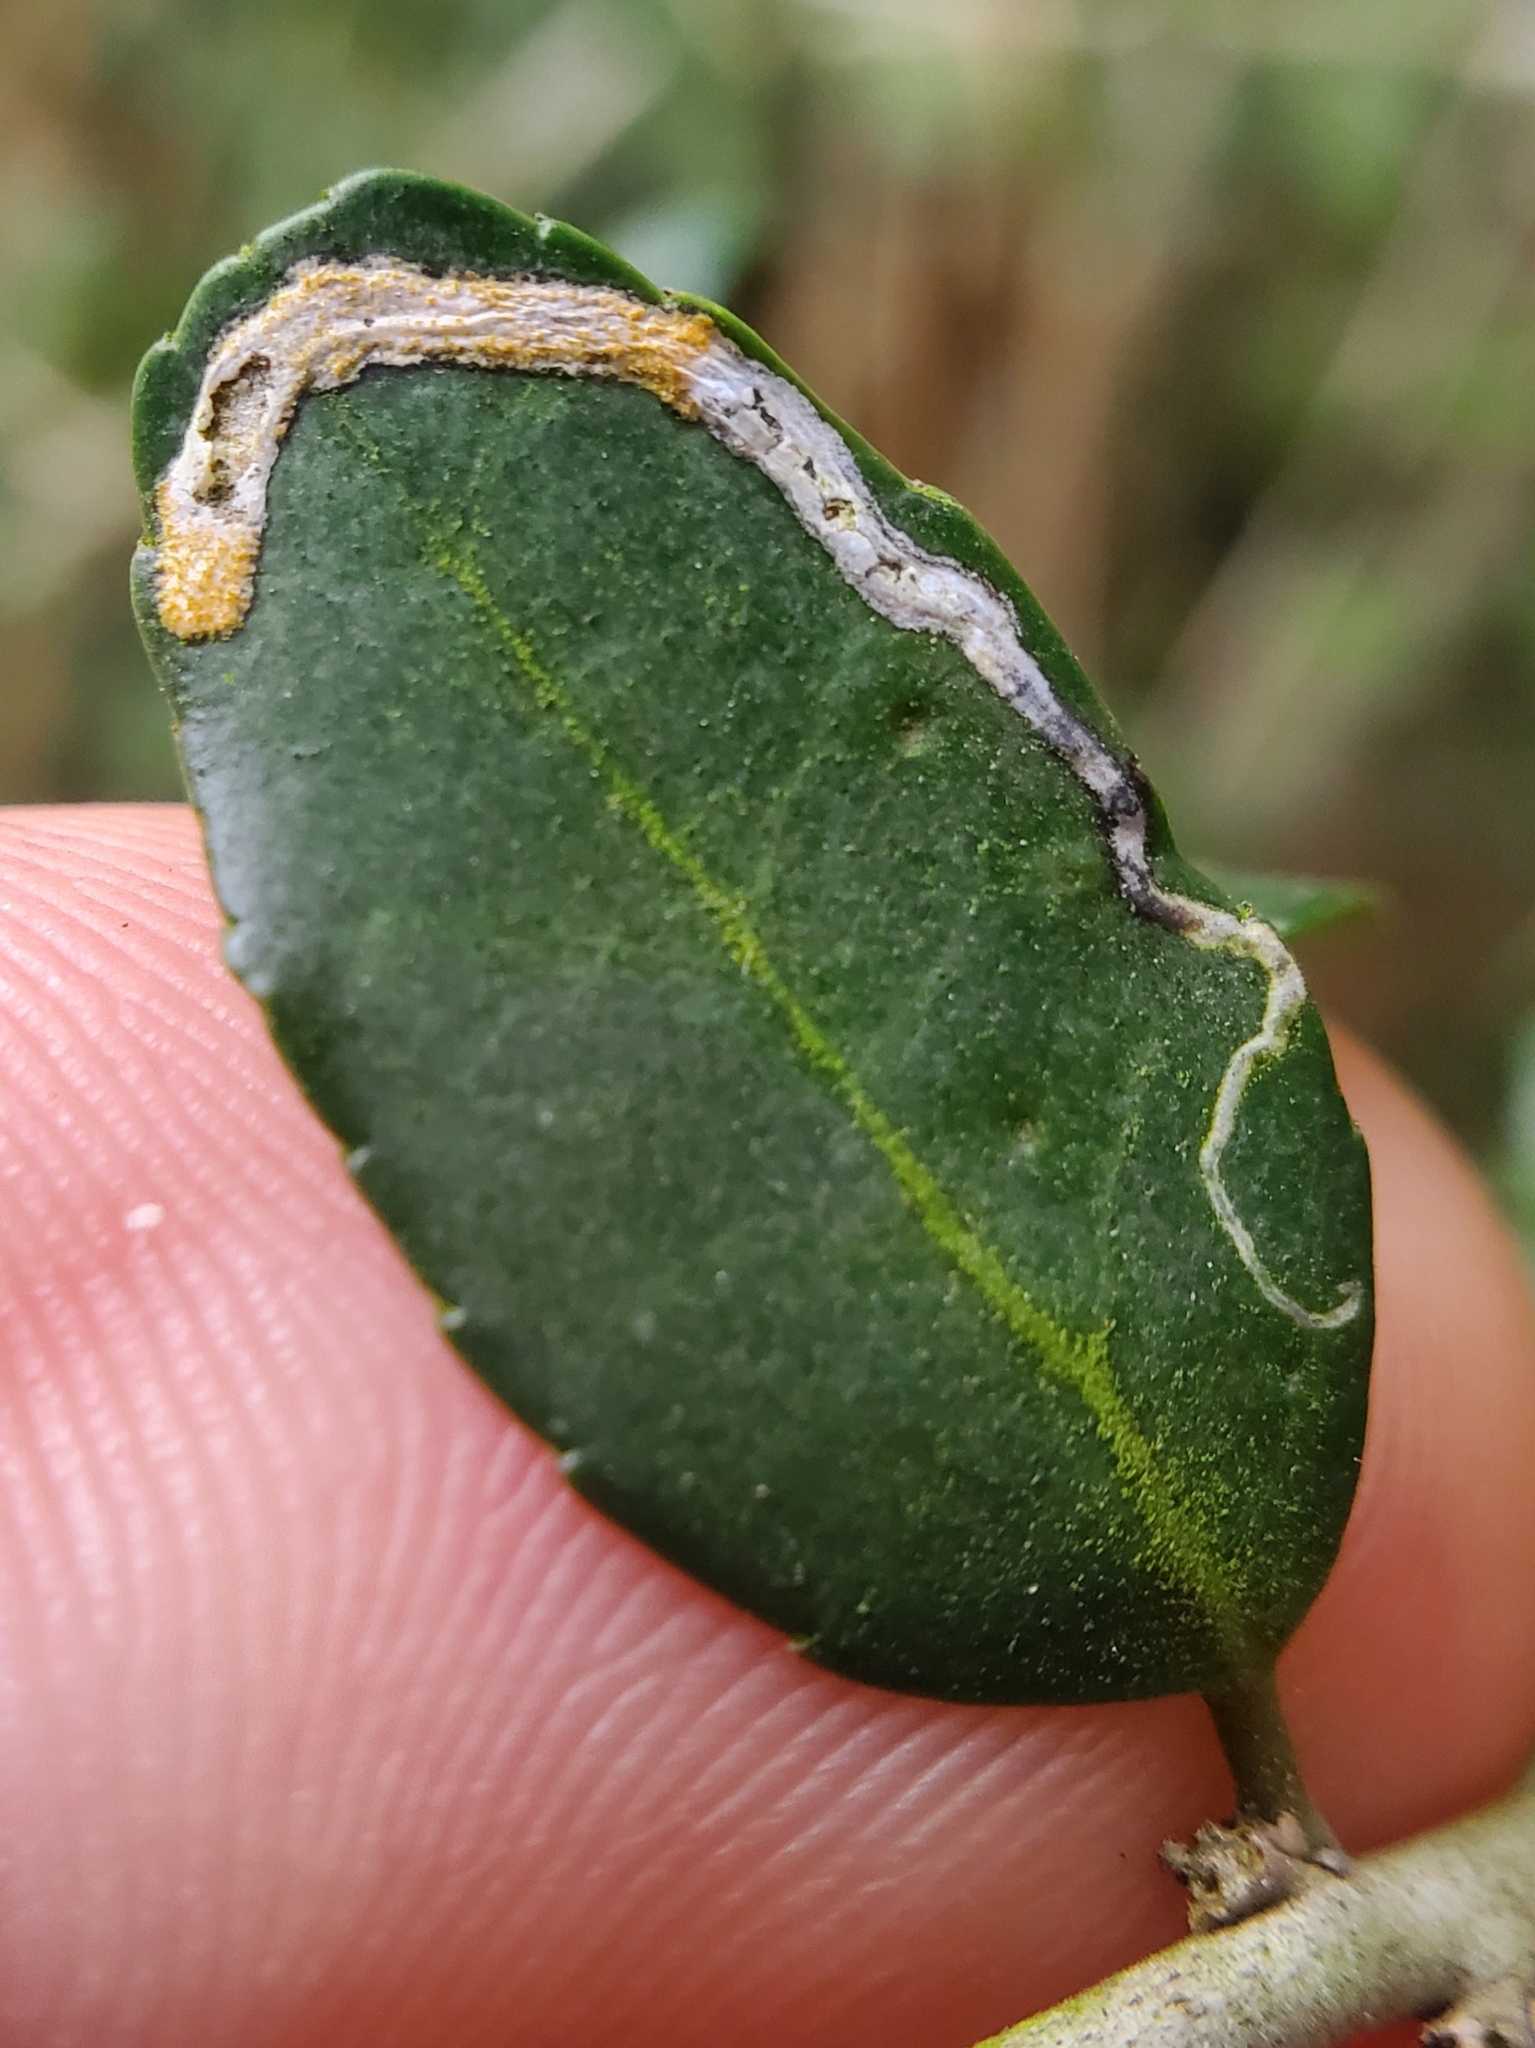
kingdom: Animalia
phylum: Arthropoda
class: Insecta
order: Diptera
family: Agromyzidae
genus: Phytomyza
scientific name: Phytomyza vomitoriae
